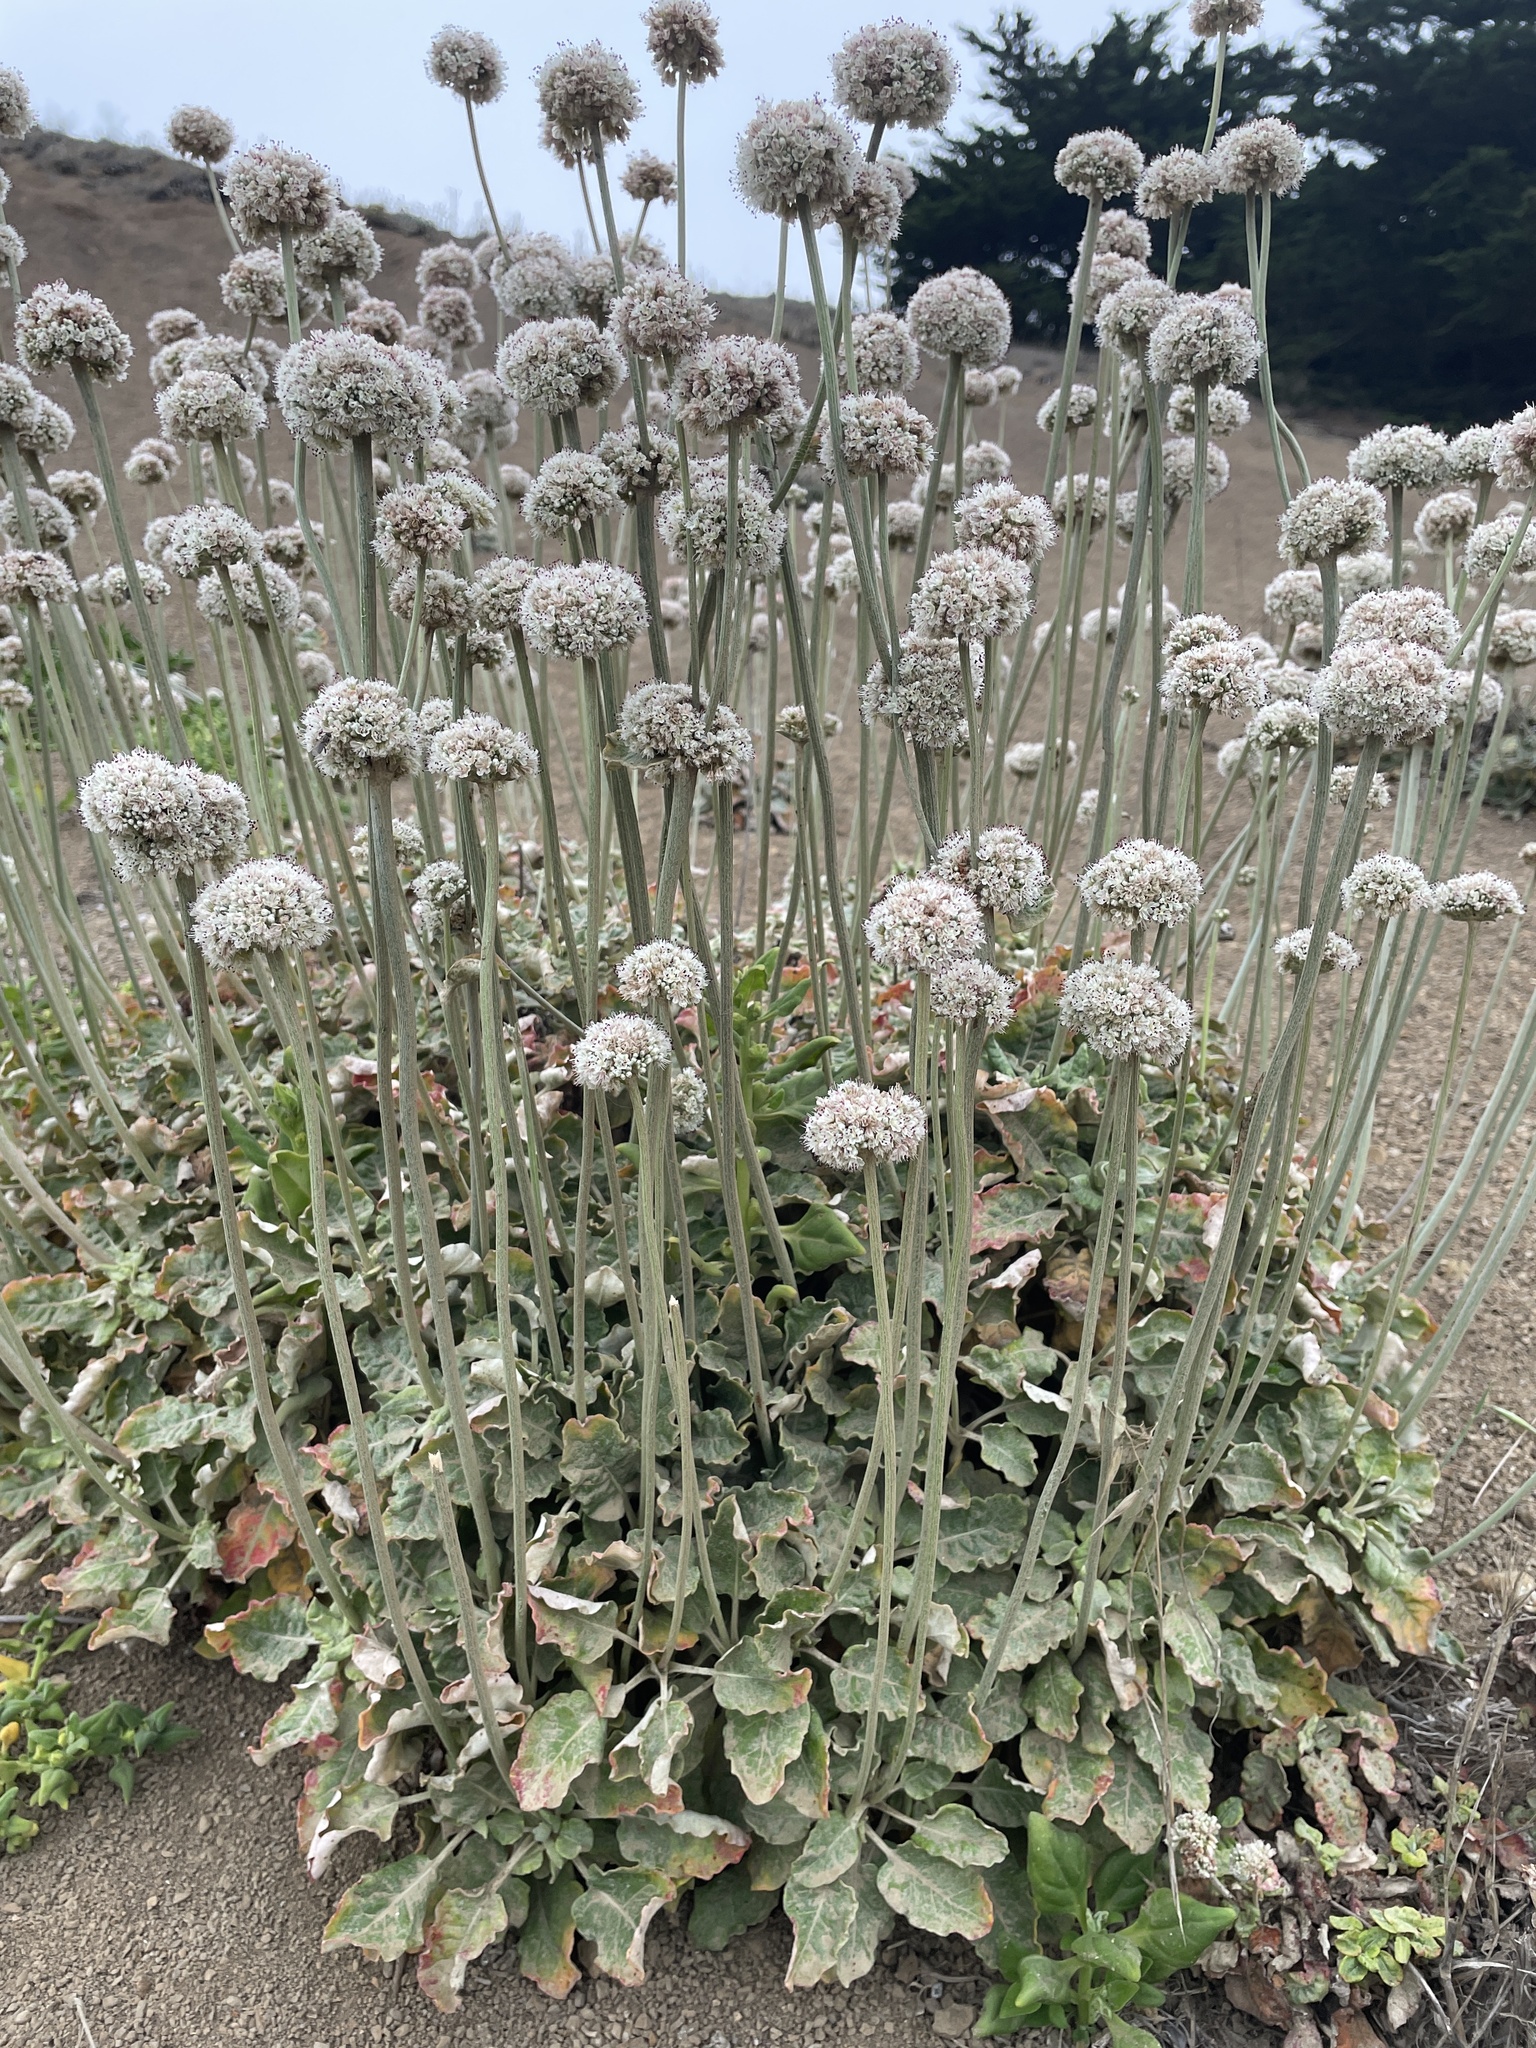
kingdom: Plantae
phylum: Tracheophyta
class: Magnoliopsida
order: Caryophyllales
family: Polygonaceae
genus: Eriogonum
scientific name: Eriogonum latifolium
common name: Seaside wild buckwheat
